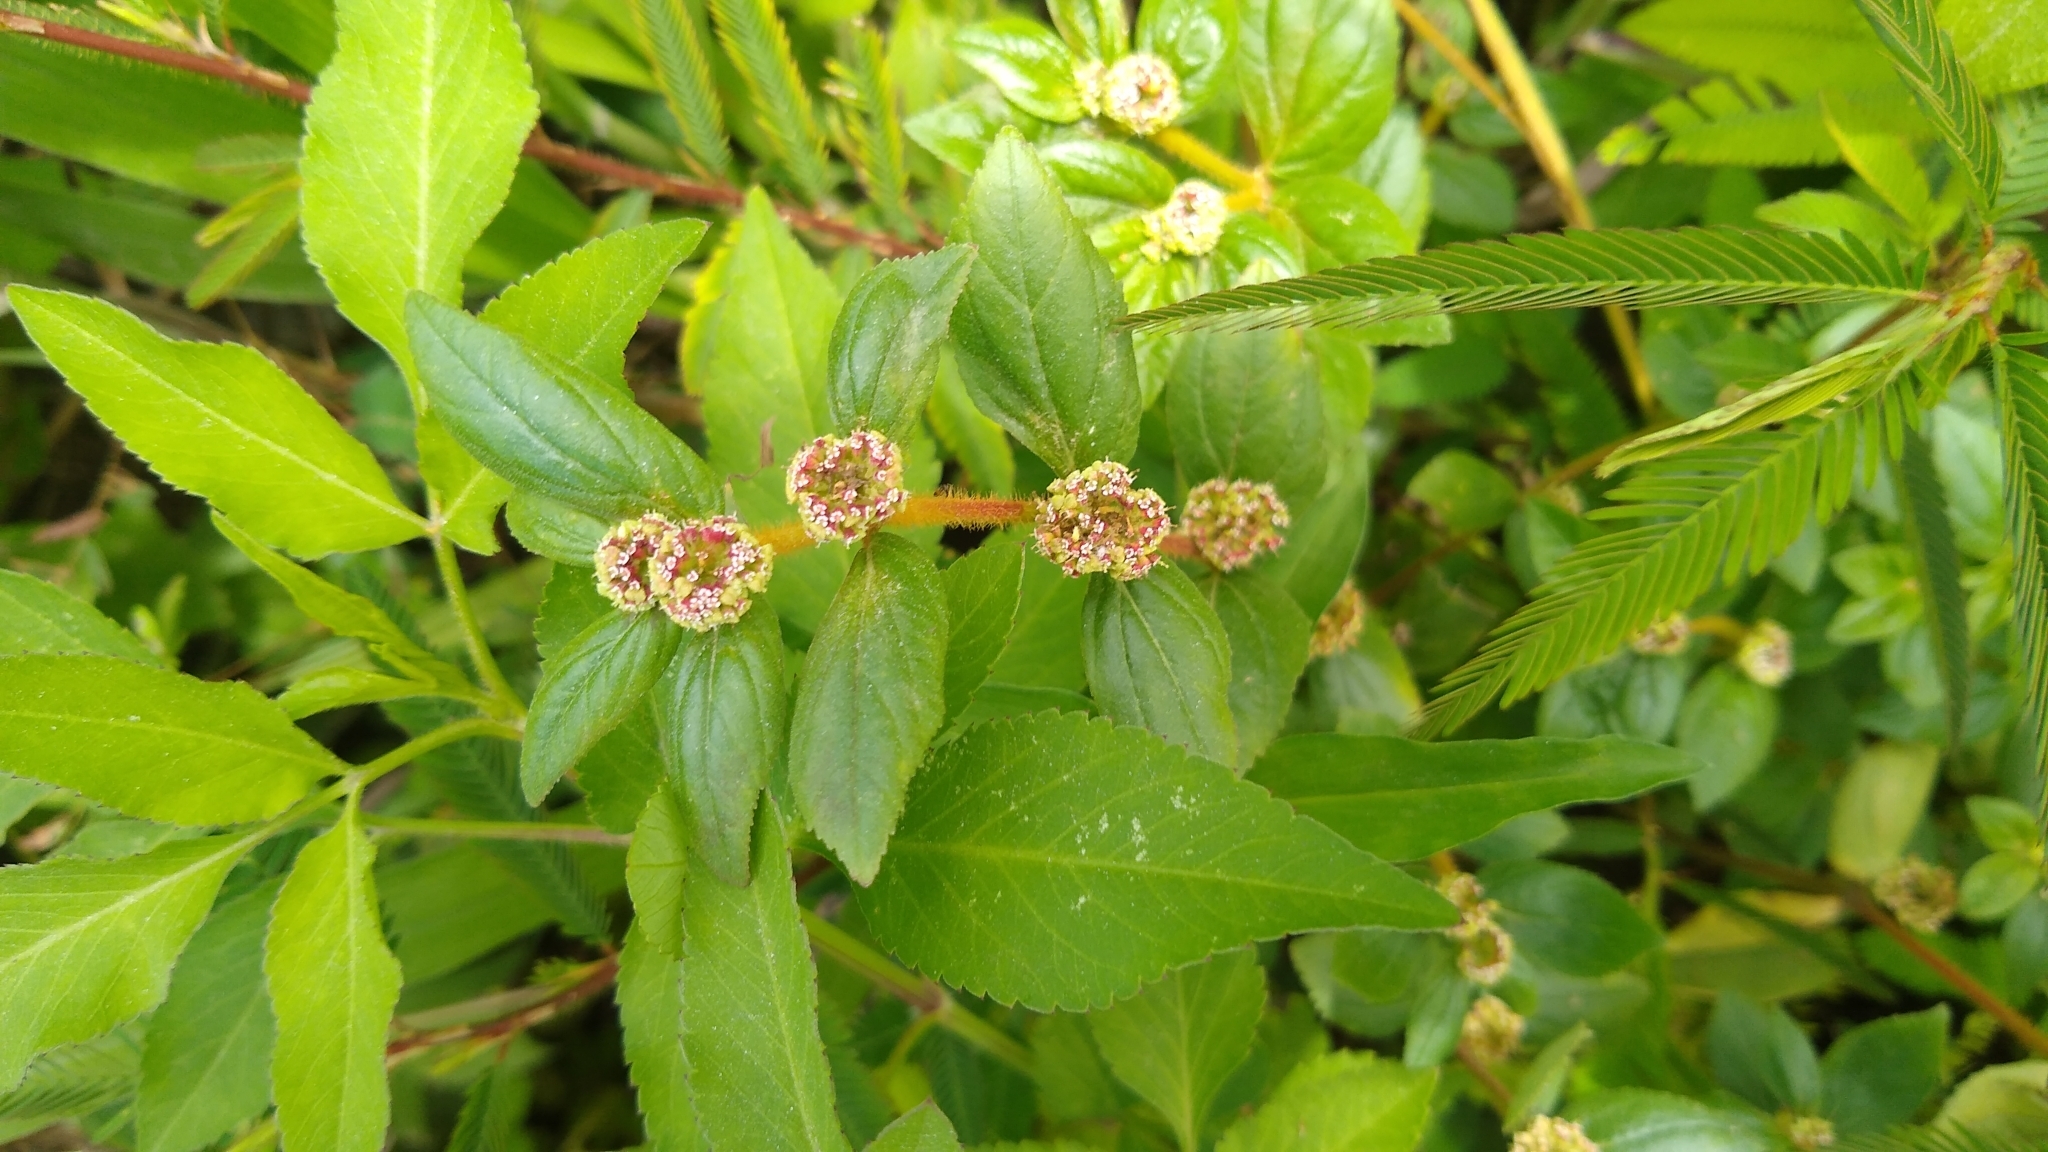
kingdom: Plantae
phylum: Tracheophyta
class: Magnoliopsida
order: Malpighiales
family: Euphorbiaceae
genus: Euphorbia
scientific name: Euphorbia hirta
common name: Pillpod sandmat
